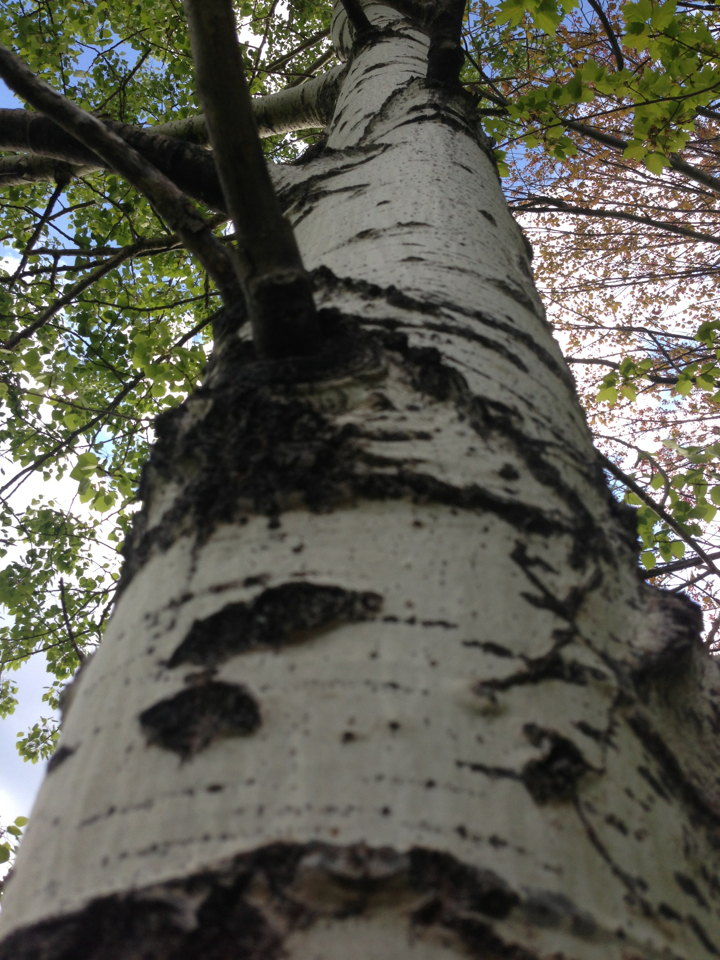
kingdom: Plantae
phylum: Tracheophyta
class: Magnoliopsida
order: Malpighiales
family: Salicaceae
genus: Populus
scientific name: Populus tremuloides
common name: Quaking aspen
